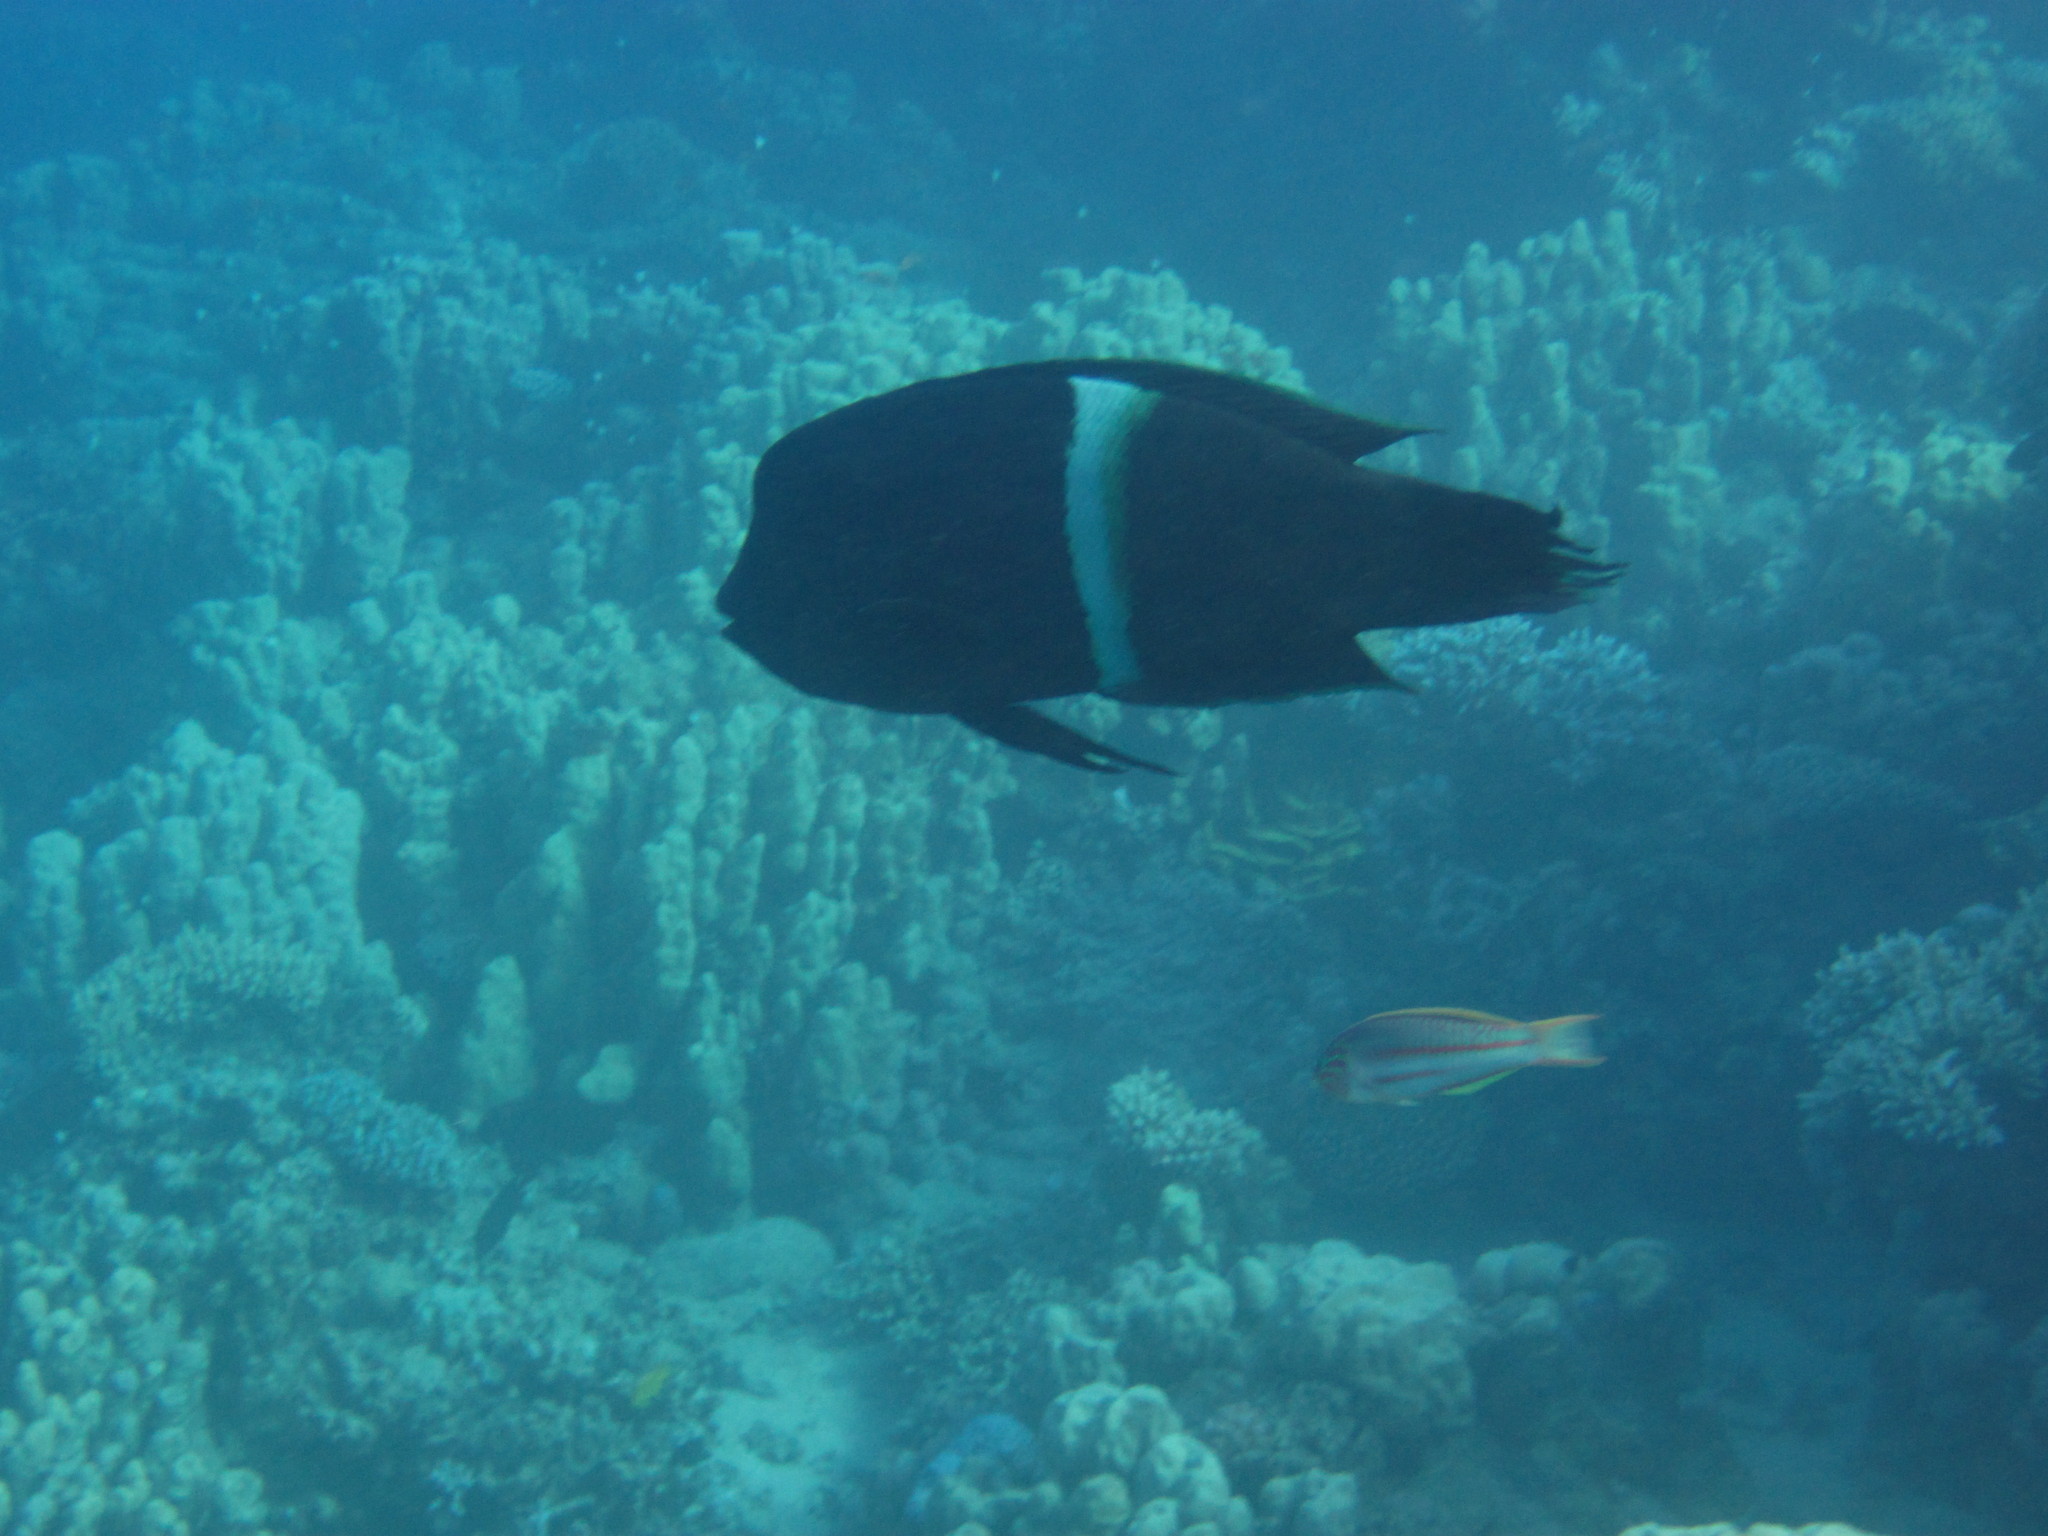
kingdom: Animalia
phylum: Chordata
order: Perciformes
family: Labridae
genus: Coris
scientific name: Coris aygula
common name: Clown coris
